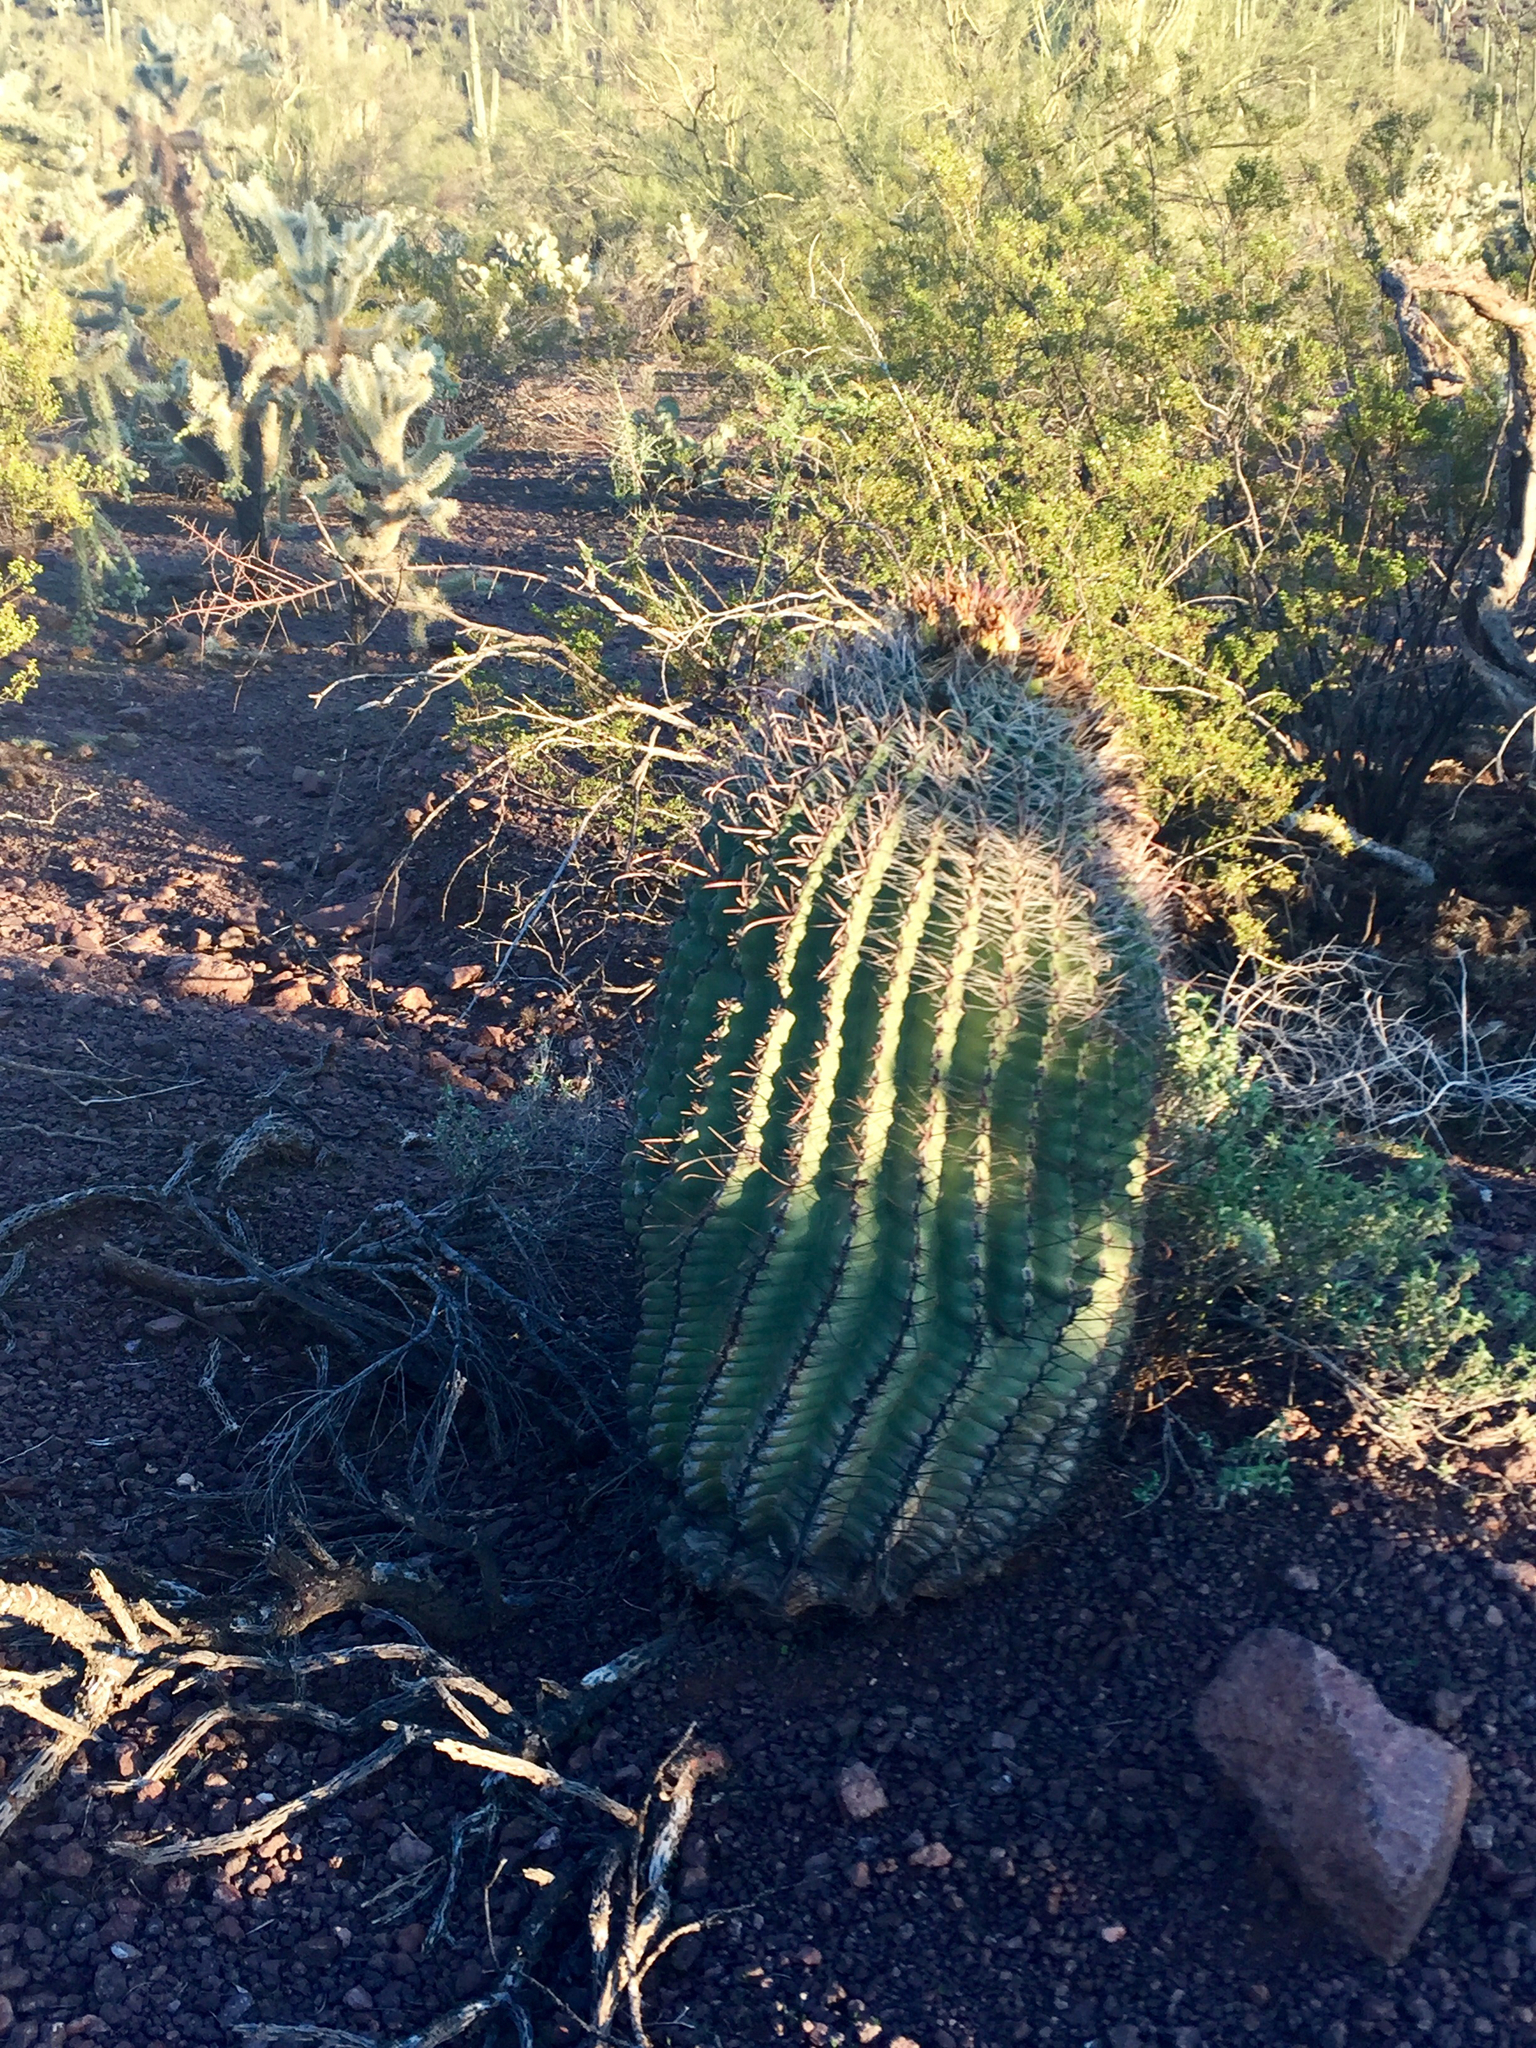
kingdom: Plantae
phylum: Tracheophyta
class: Magnoliopsida
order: Caryophyllales
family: Cactaceae
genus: Ferocactus
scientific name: Ferocactus wislizeni
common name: Candy barrel cactus
